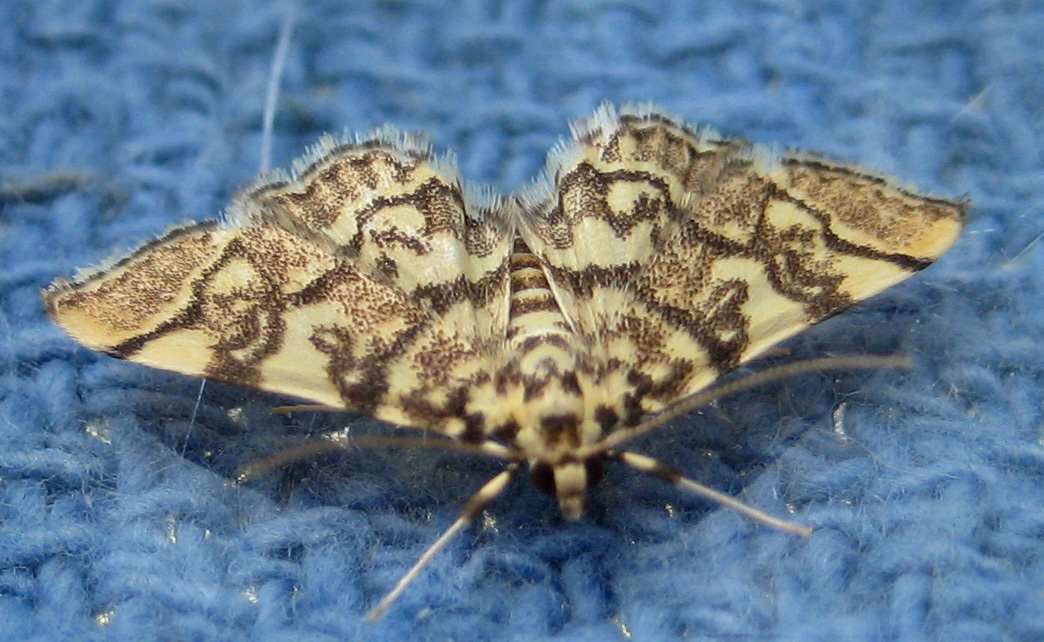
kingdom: Animalia
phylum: Arthropoda
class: Insecta
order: Lepidoptera
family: Crambidae
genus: Apogeshna
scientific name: Apogeshna stenialis
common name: Checkered apogeshna moth
